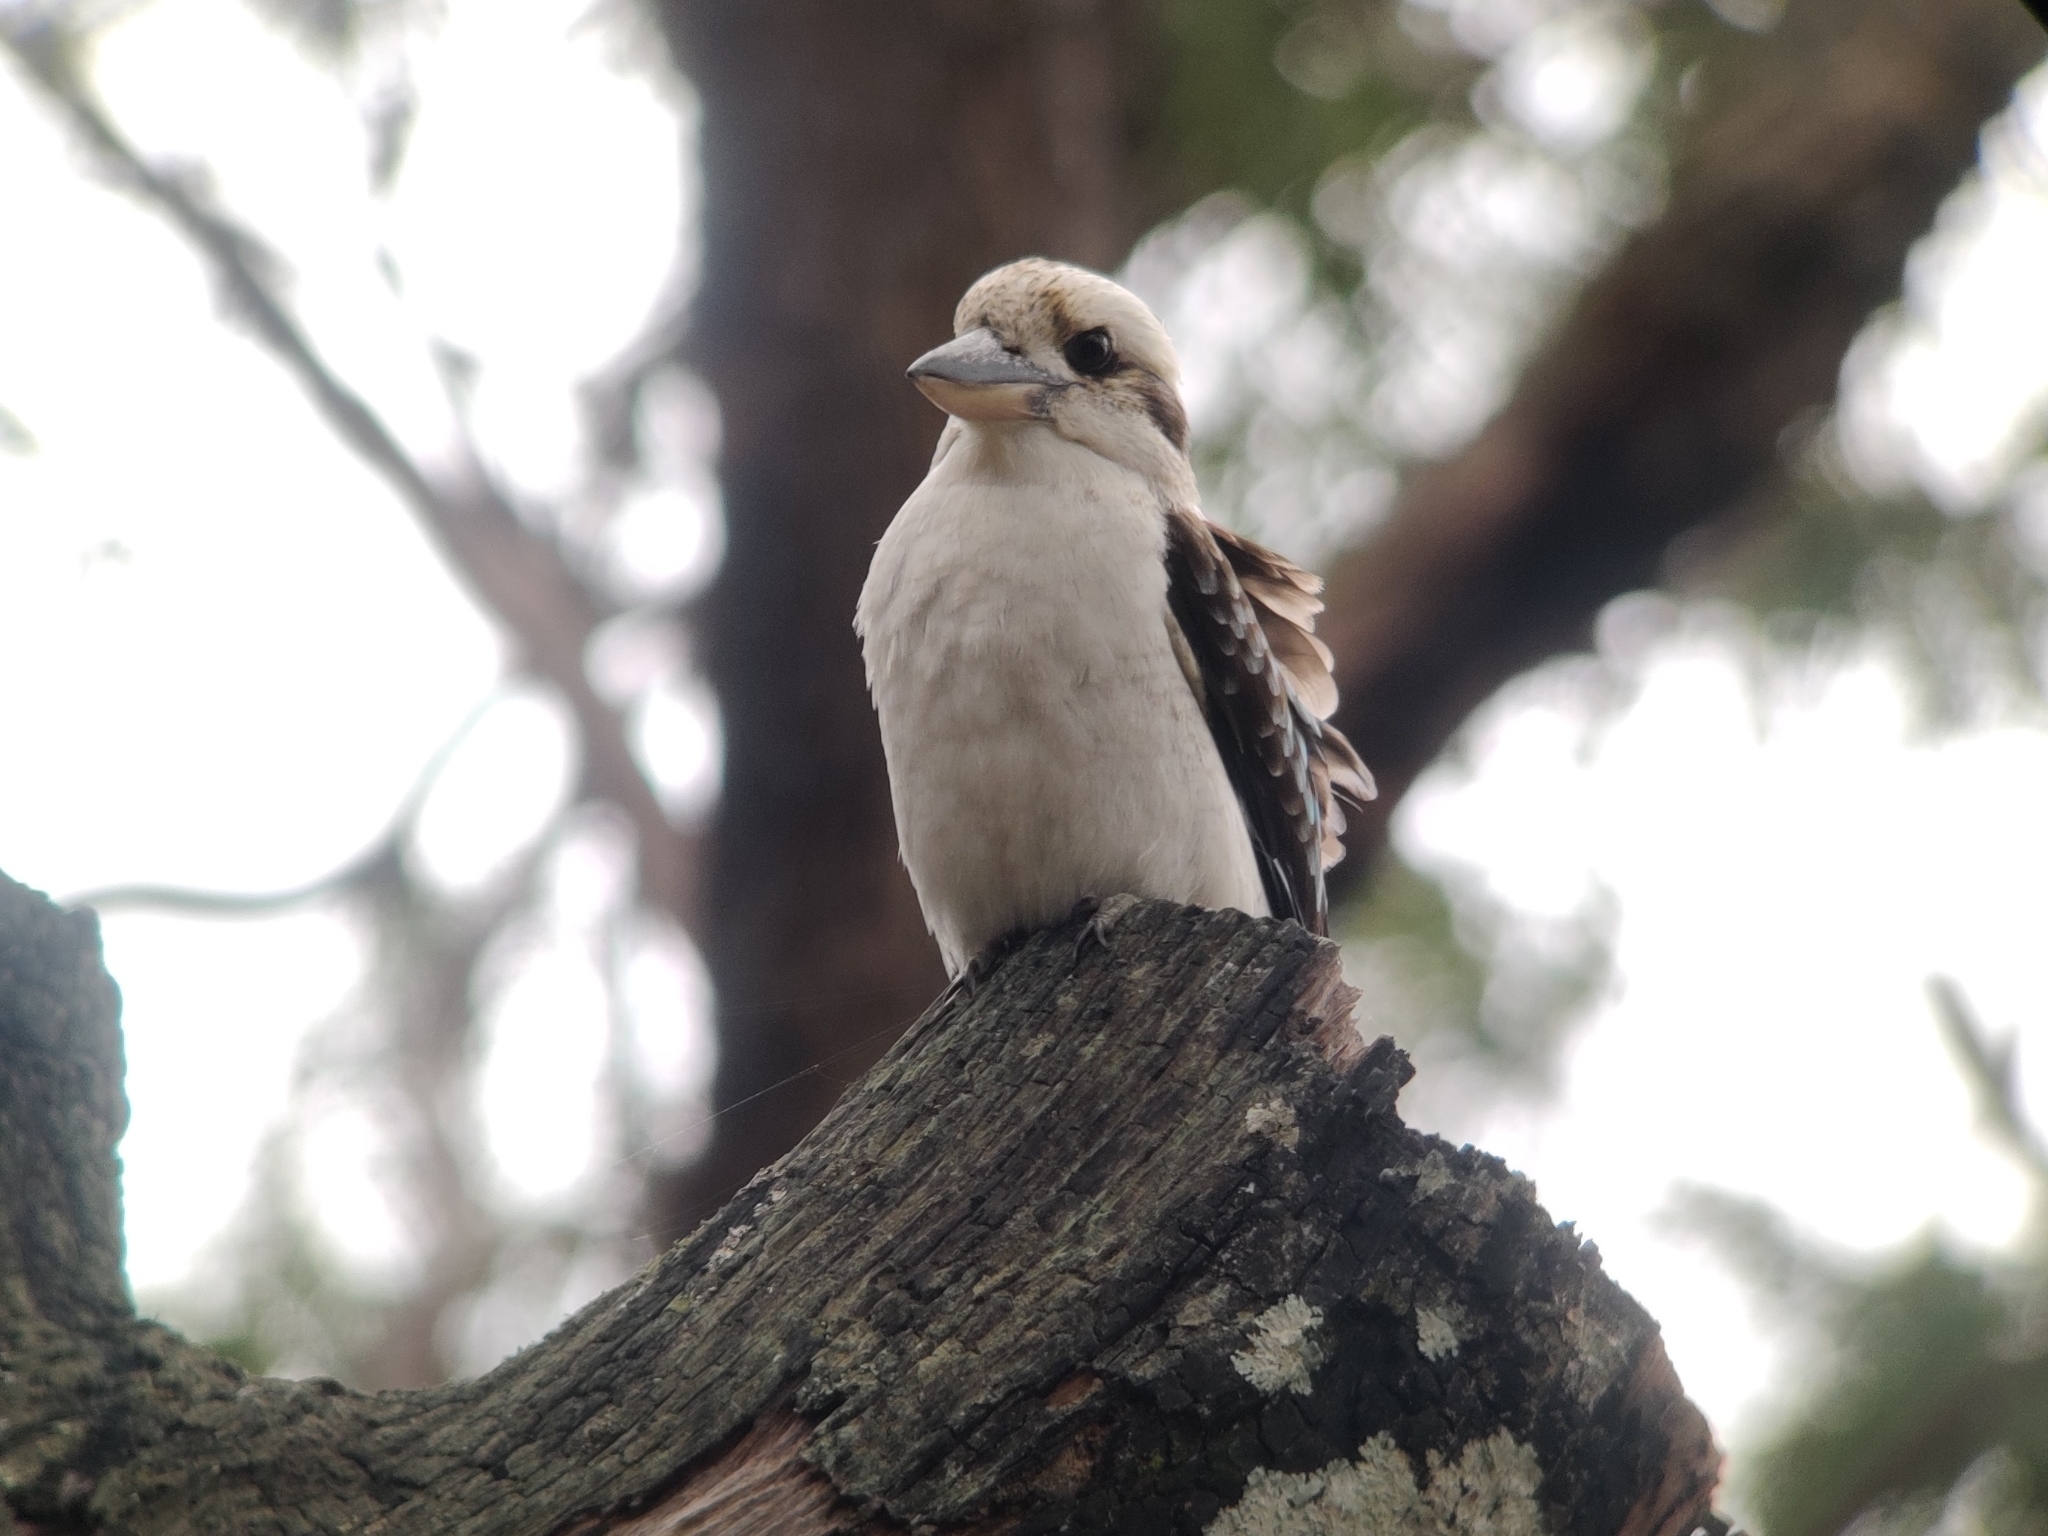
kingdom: Animalia
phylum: Chordata
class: Aves
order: Coraciiformes
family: Alcedinidae
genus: Dacelo
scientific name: Dacelo novaeguineae
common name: Laughing kookaburra
